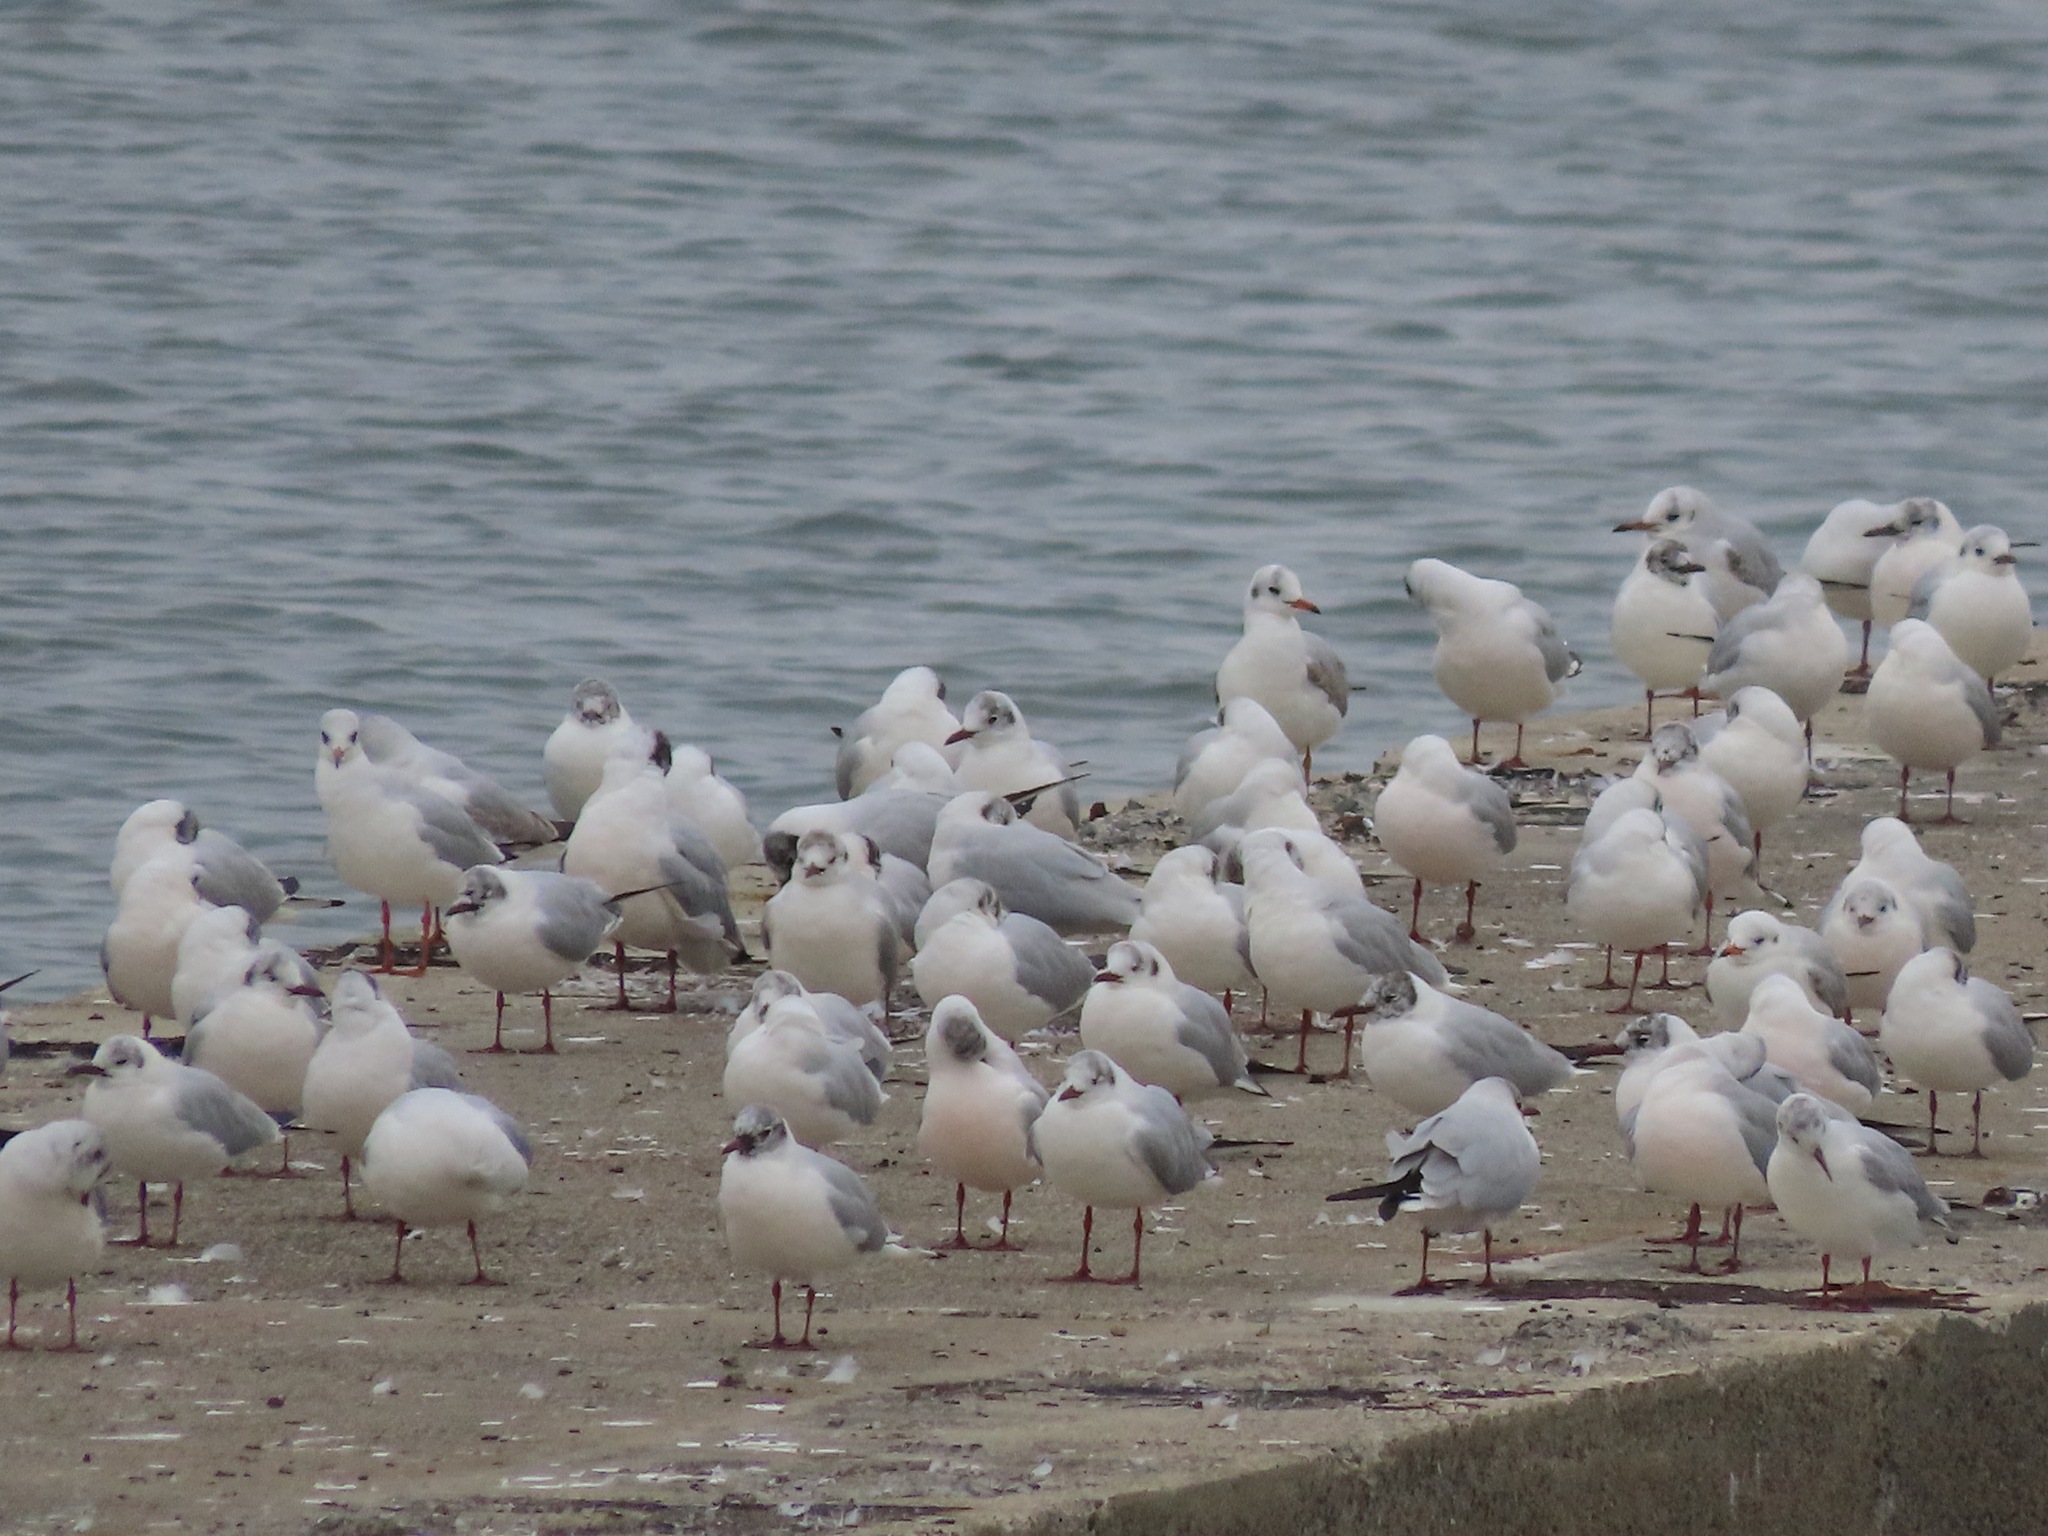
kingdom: Animalia
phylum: Chordata
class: Aves
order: Charadriiformes
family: Laridae
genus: Chroicocephalus
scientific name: Chroicocephalus ridibundus
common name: Black-headed gull
